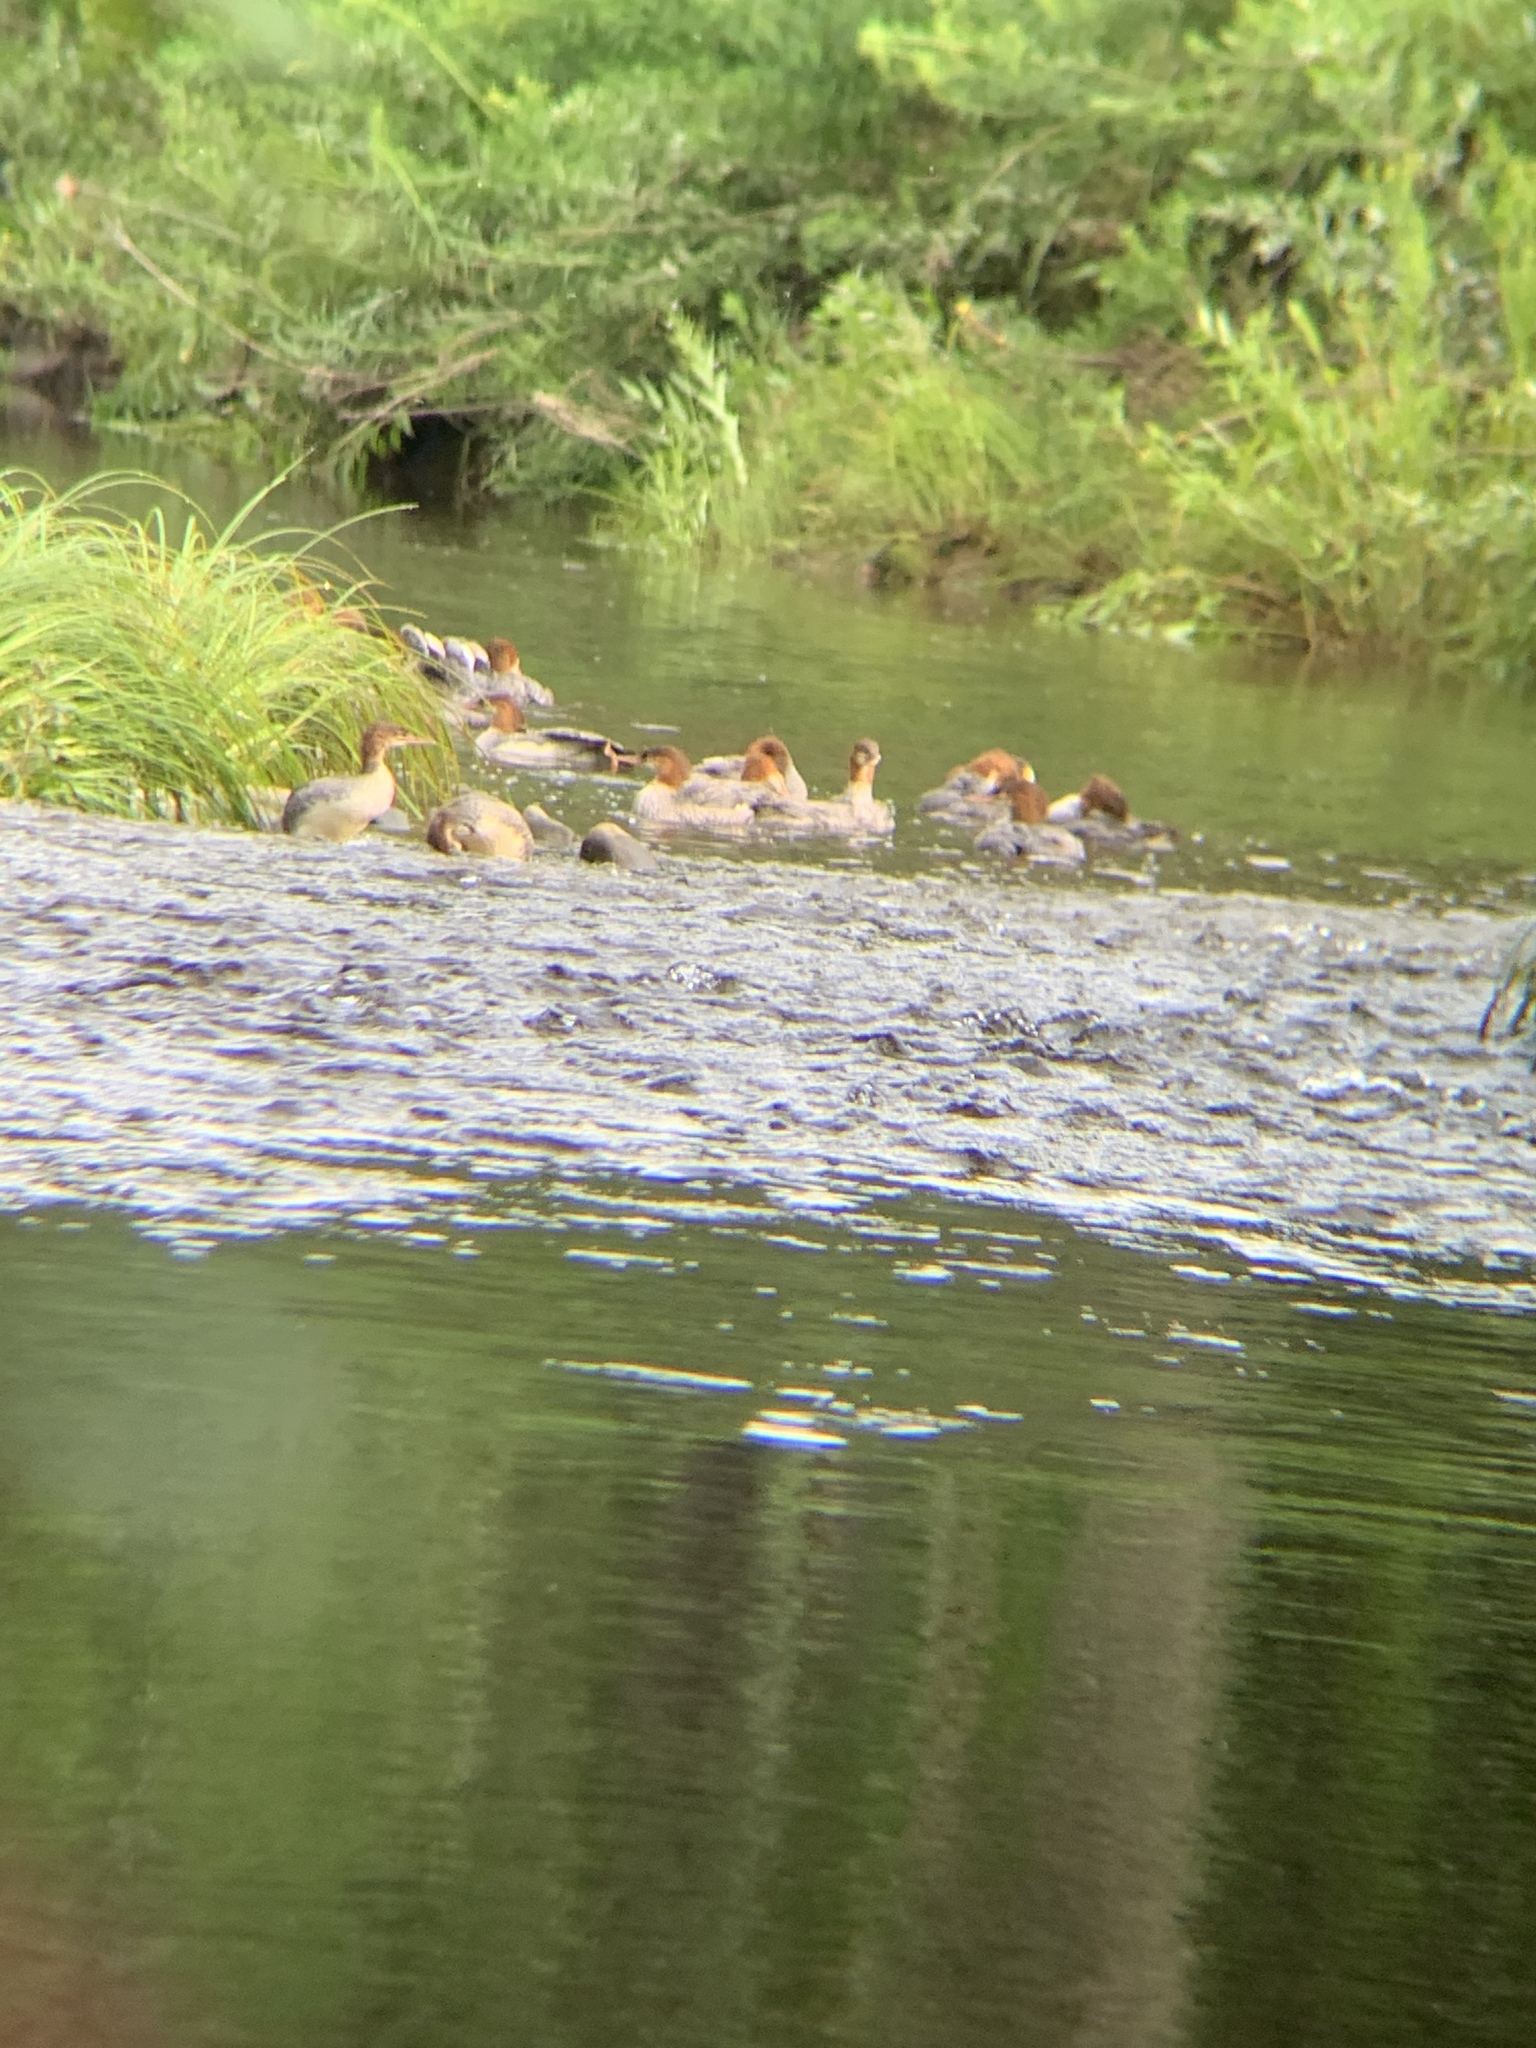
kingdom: Animalia
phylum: Chordata
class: Aves
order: Anseriformes
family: Anatidae
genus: Mergus
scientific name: Mergus merganser
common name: Common merganser
